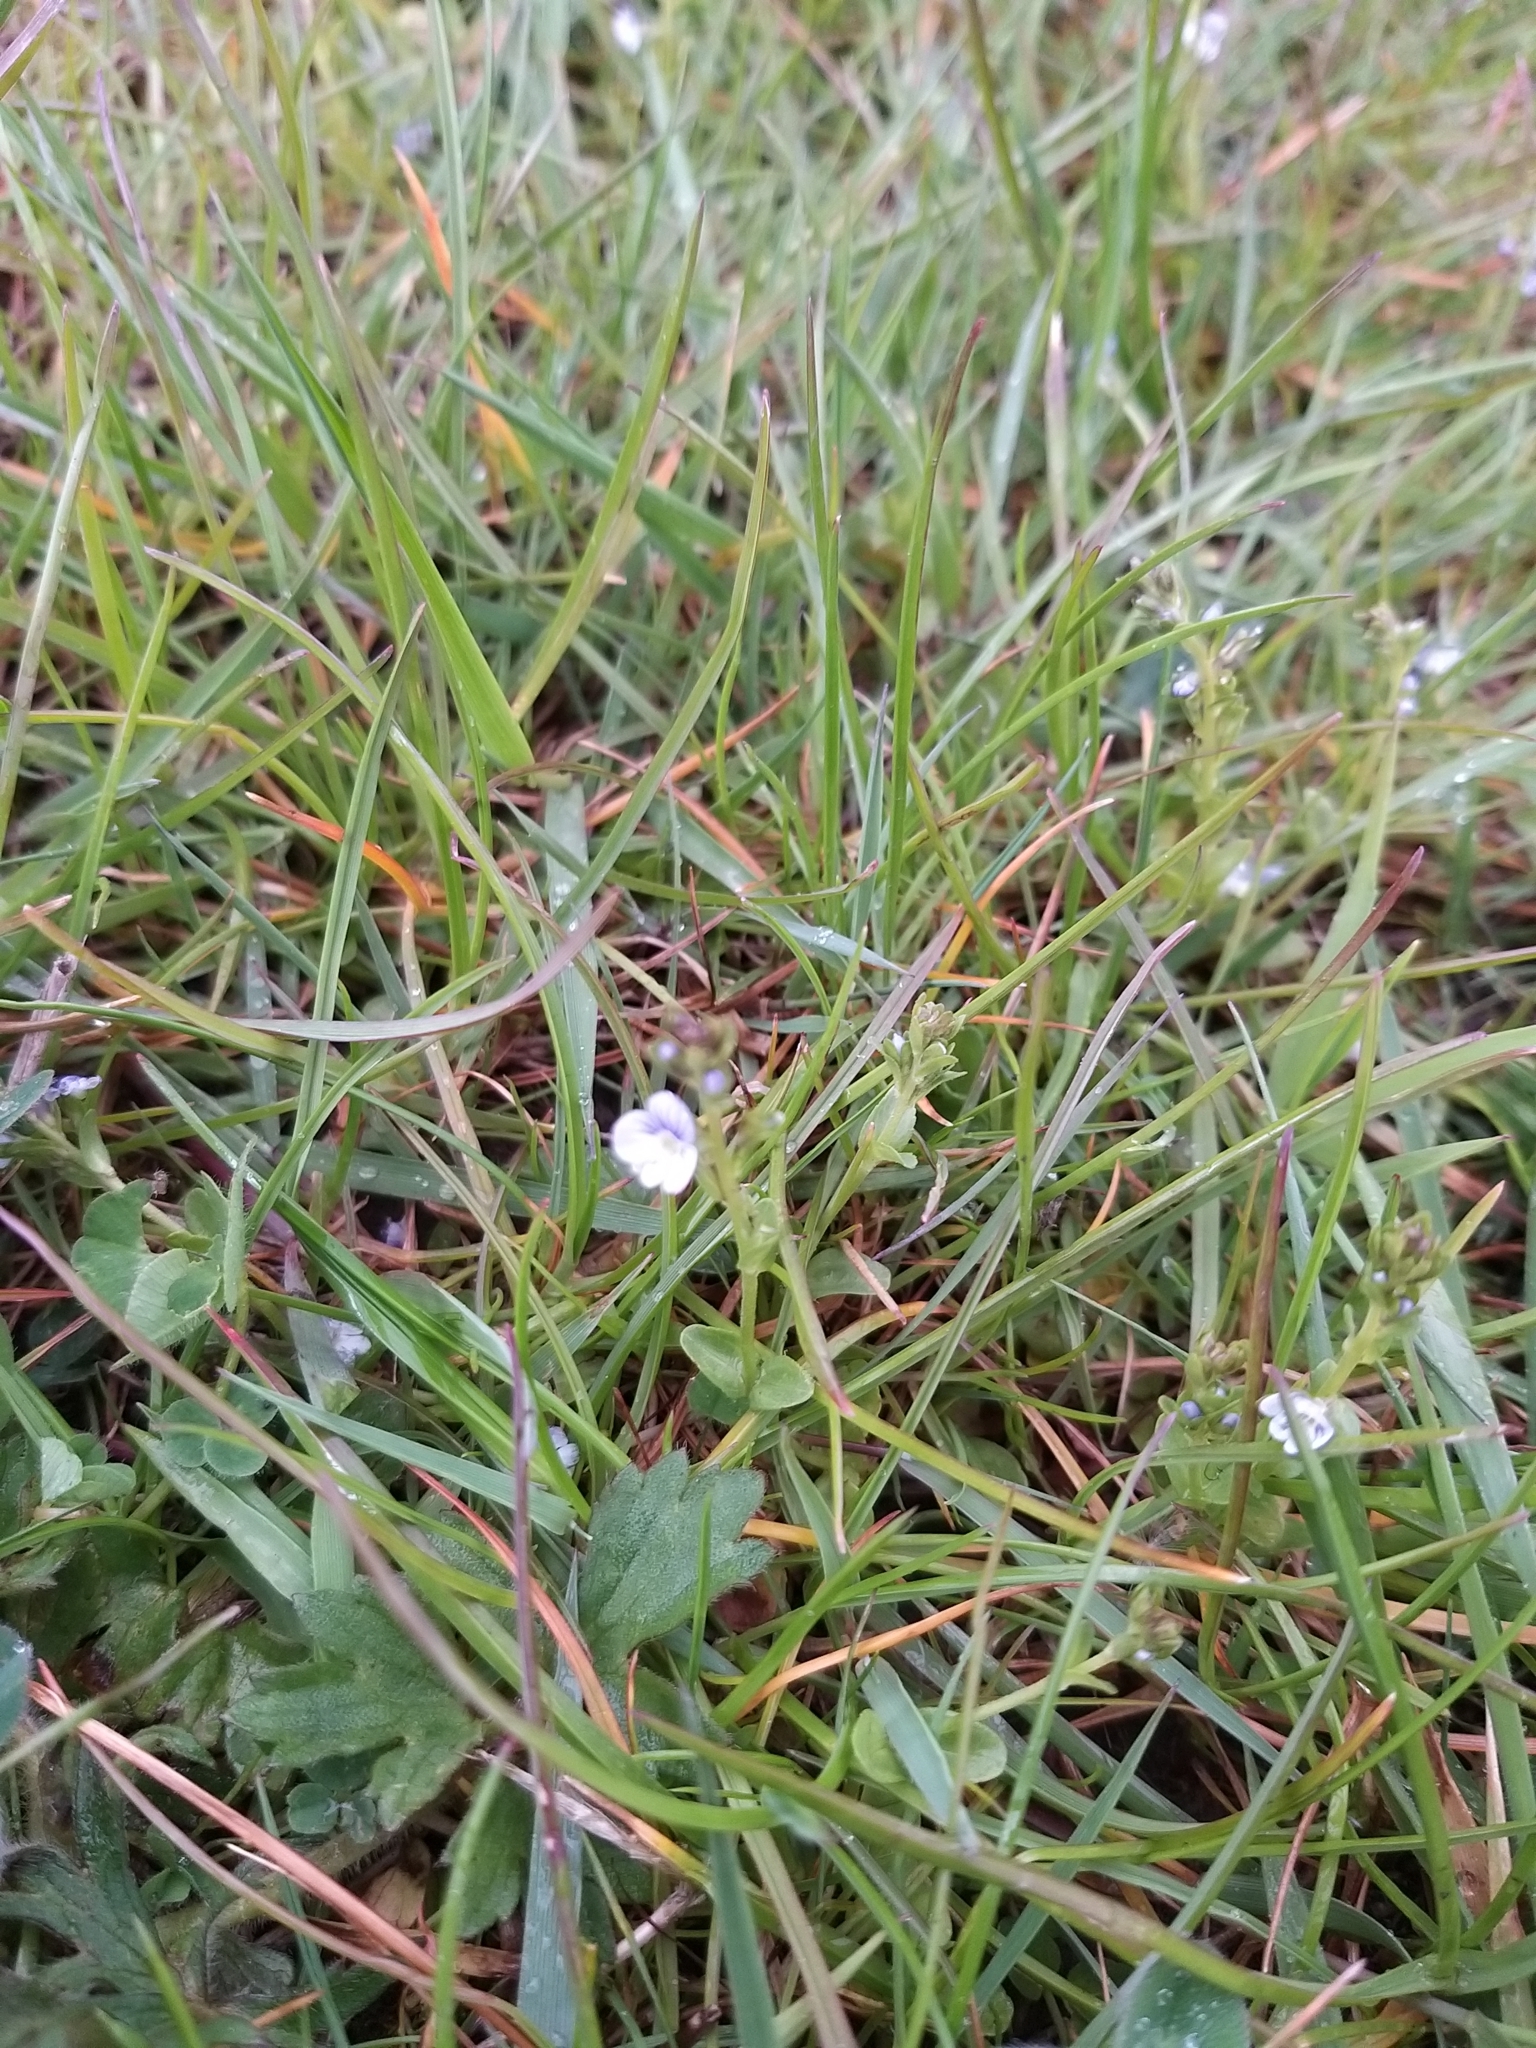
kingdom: Plantae
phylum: Tracheophyta
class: Magnoliopsida
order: Lamiales
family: Plantaginaceae
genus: Veronica
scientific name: Veronica serpyllifolia
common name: Thyme-leaved speedwell
